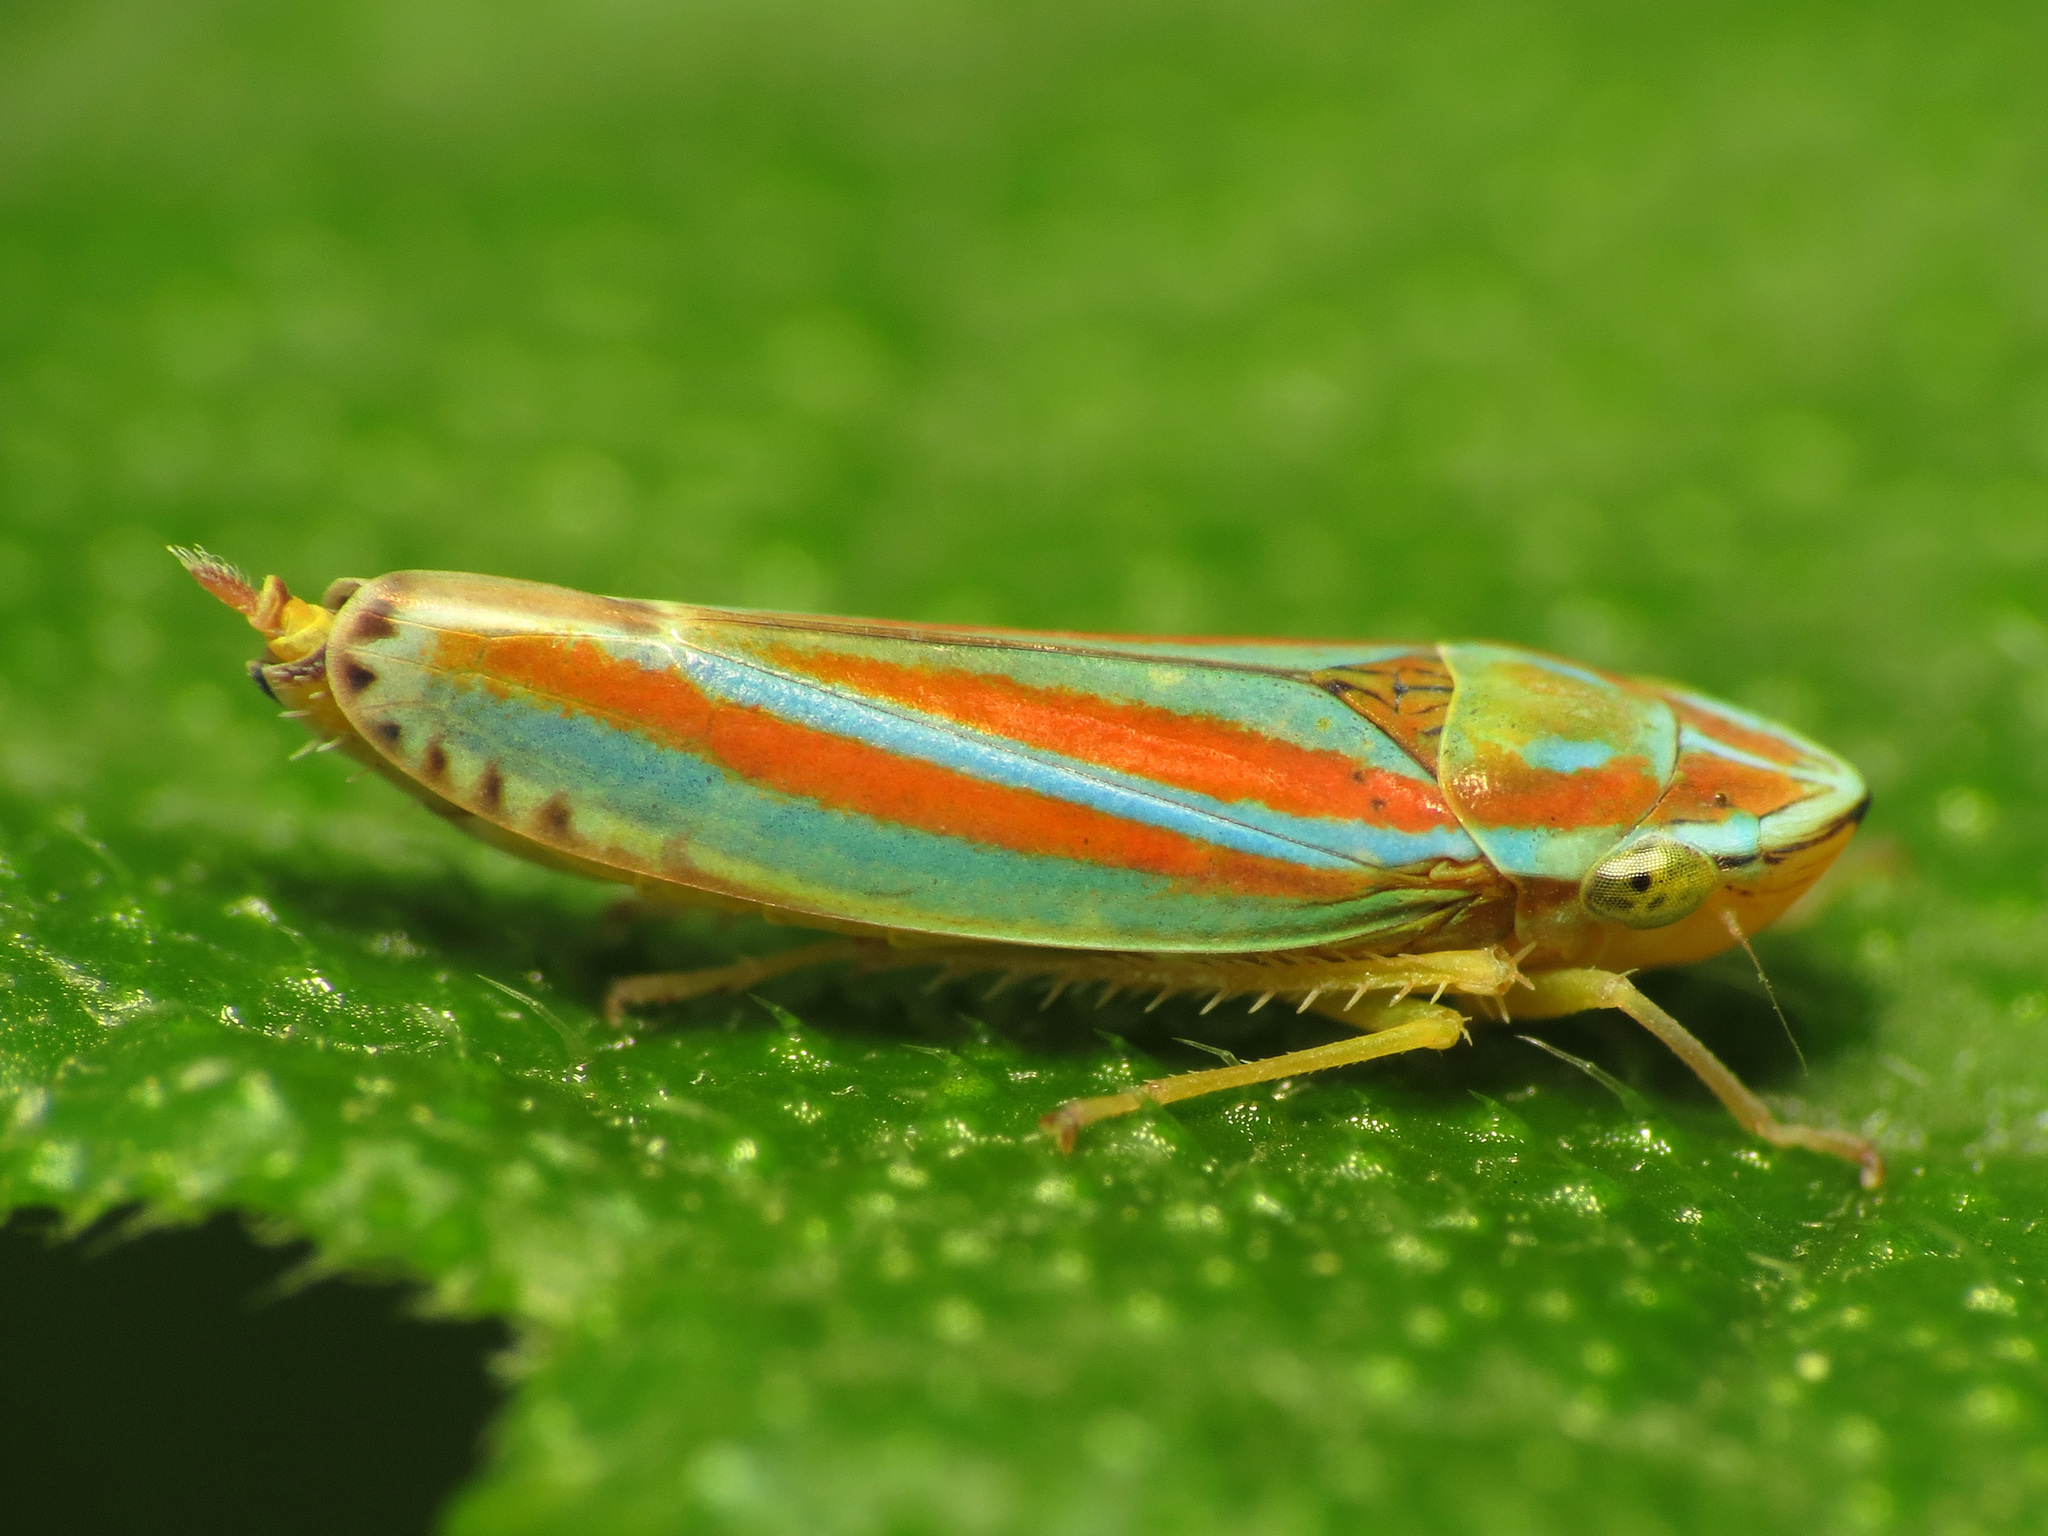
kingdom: Animalia
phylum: Arthropoda
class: Insecta
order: Hemiptera
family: Cicadellidae
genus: Graphocephala
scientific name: Graphocephala versuta
